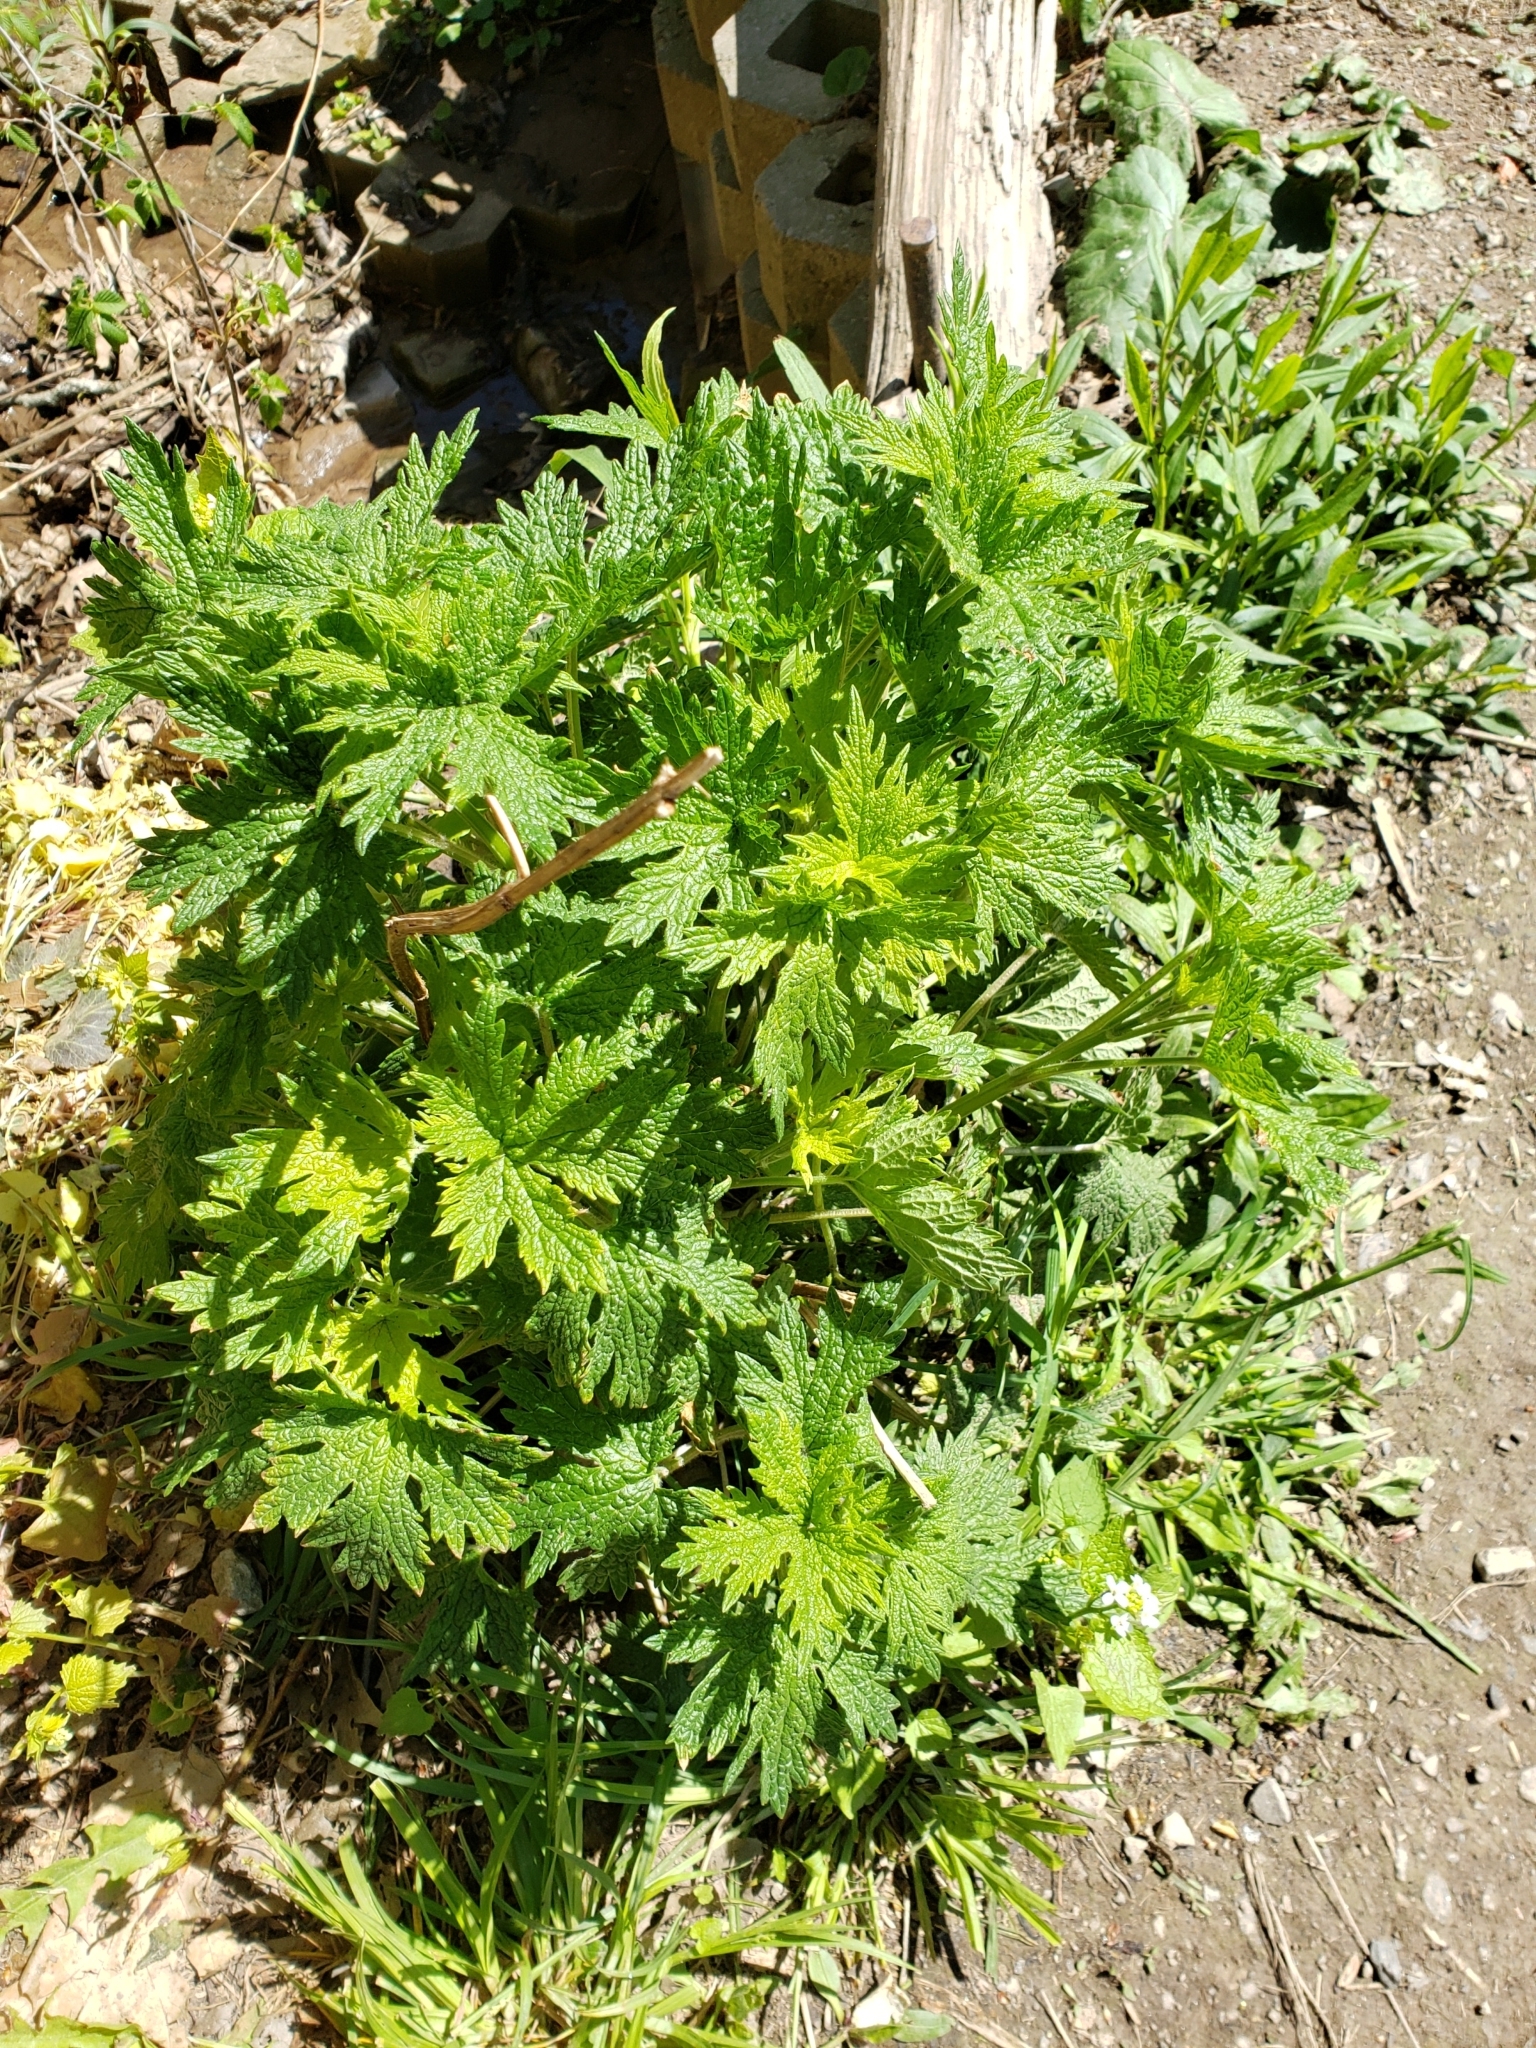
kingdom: Plantae
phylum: Tracheophyta
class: Magnoliopsida
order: Lamiales
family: Lamiaceae
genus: Leonurus
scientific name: Leonurus cardiaca
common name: Motherwort
